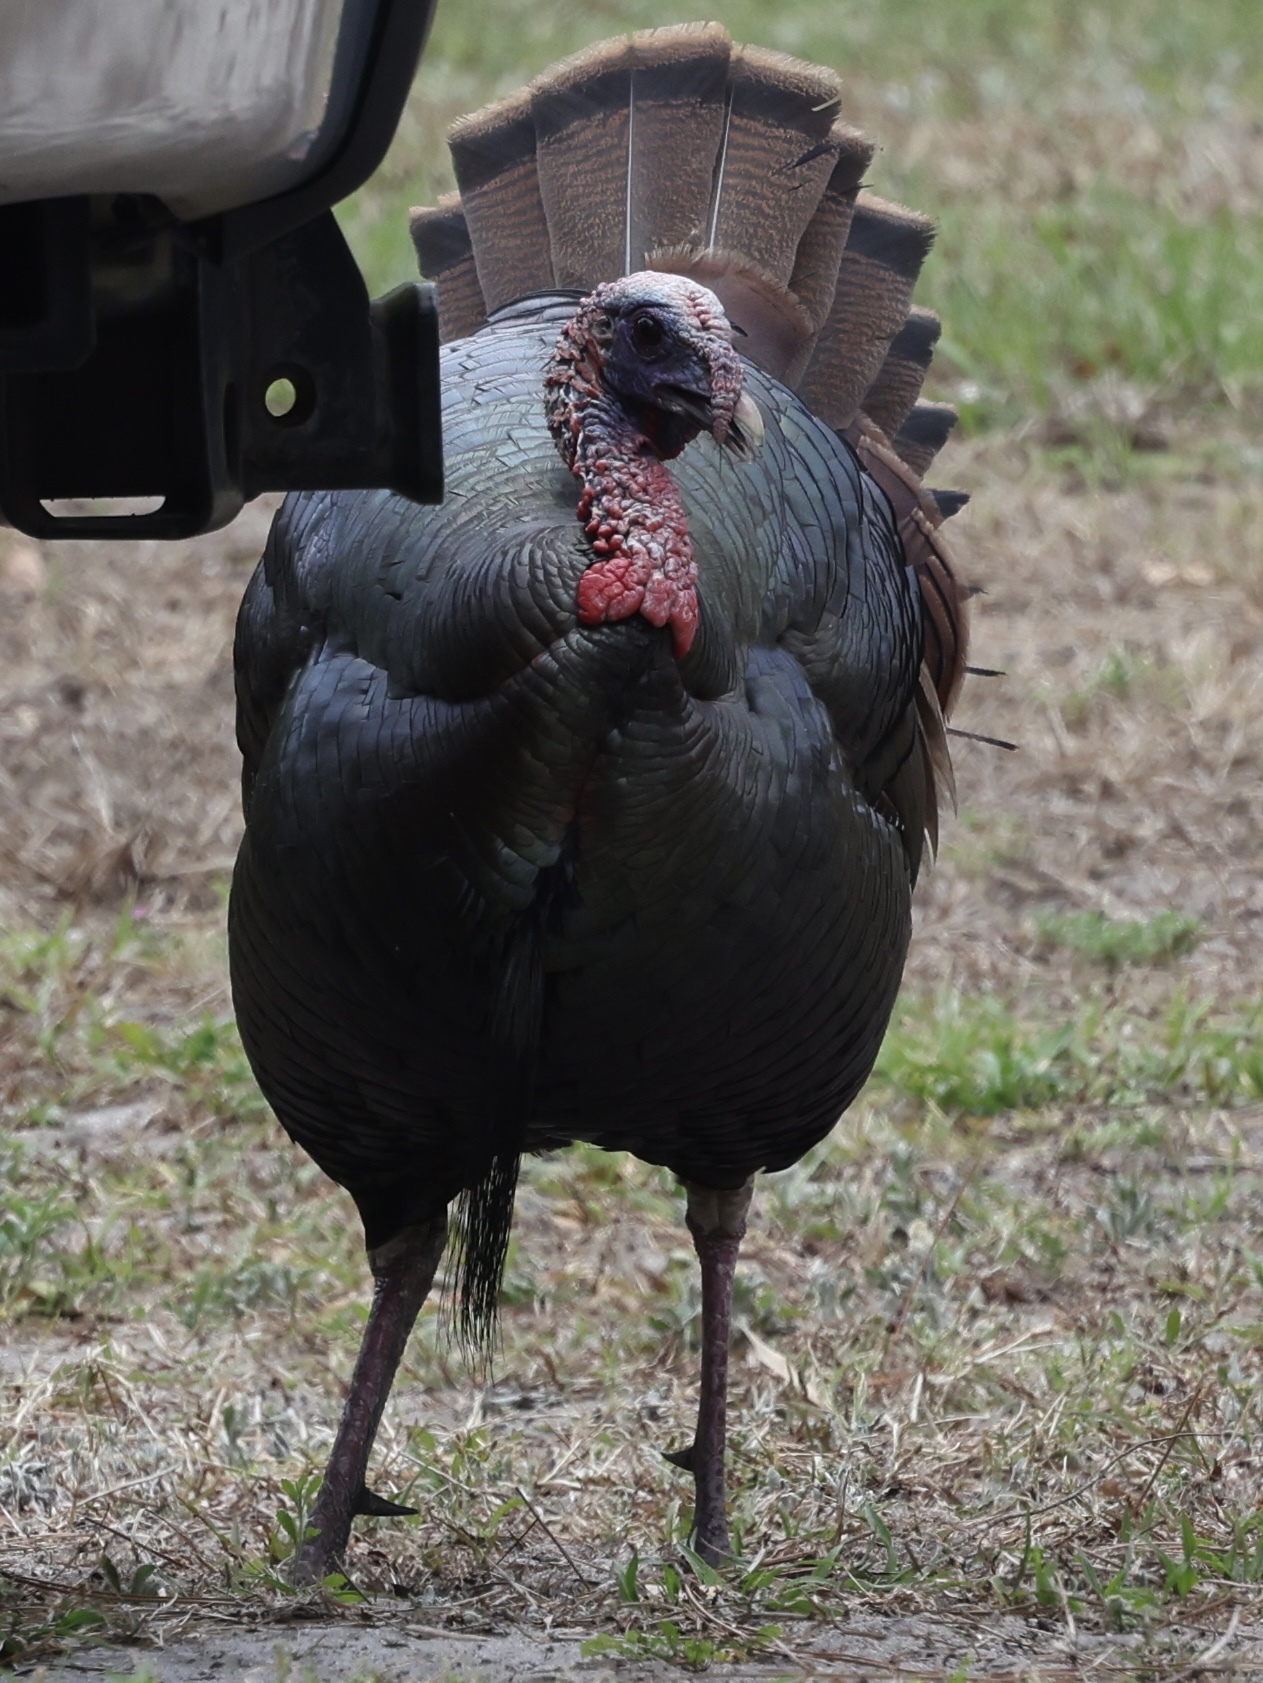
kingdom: Animalia
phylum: Chordata
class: Aves
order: Galliformes
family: Phasianidae
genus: Meleagris
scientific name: Meleagris gallopavo
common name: Wild turkey
